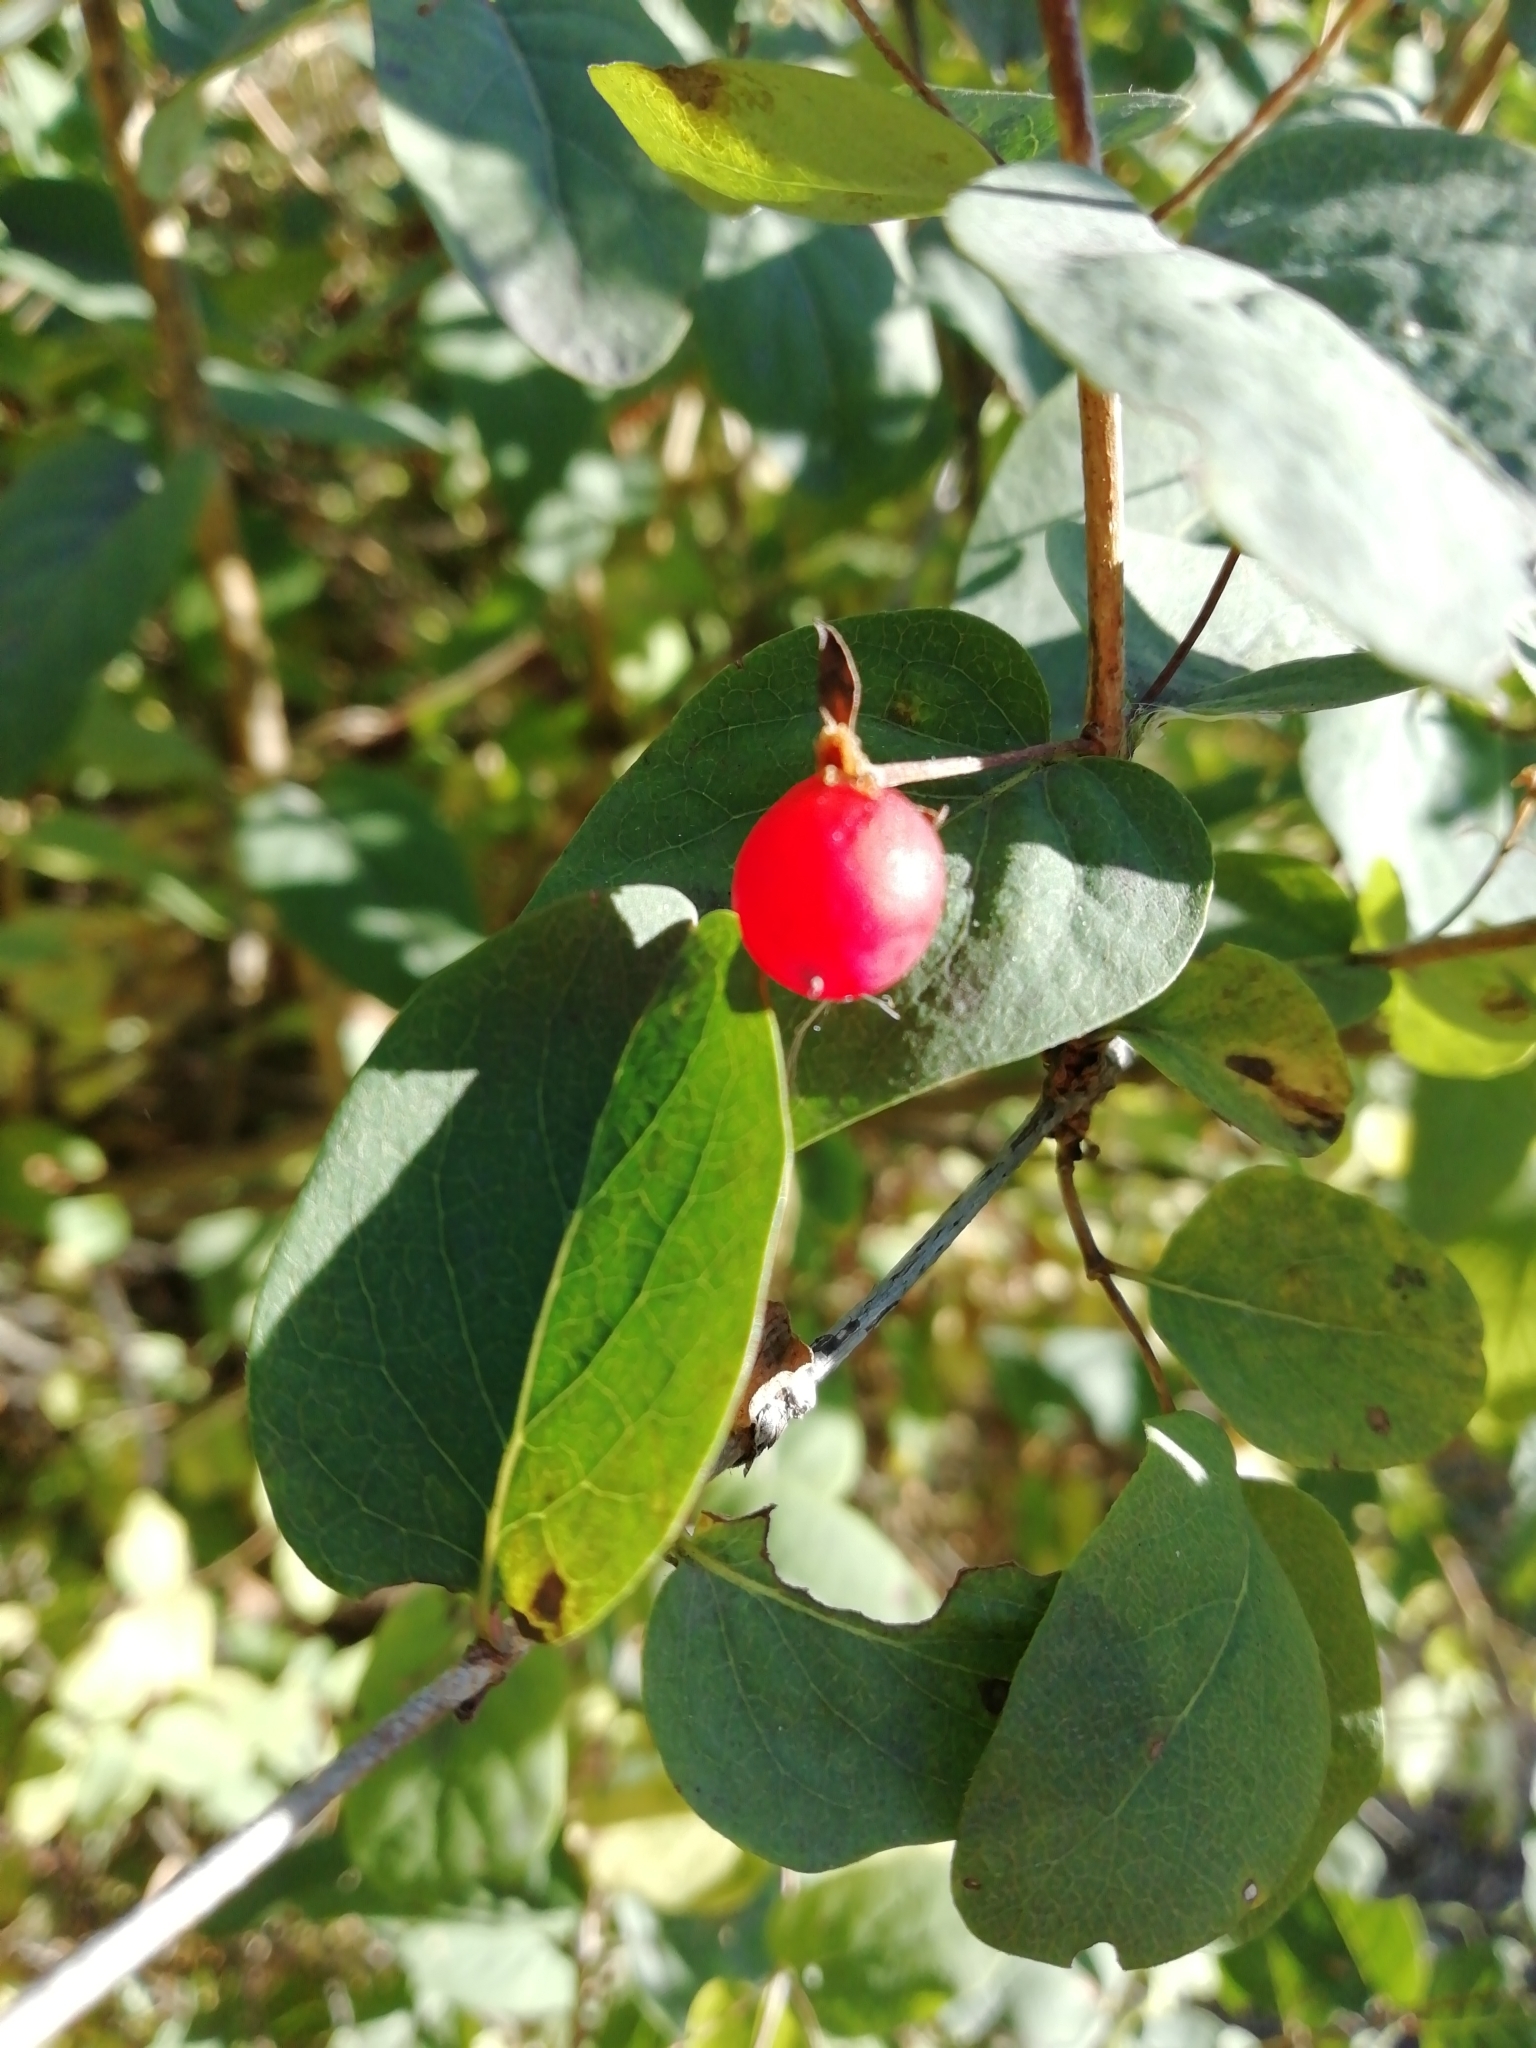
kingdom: Plantae
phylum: Tracheophyta
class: Magnoliopsida
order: Dipsacales
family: Caprifoliaceae
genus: Lonicera
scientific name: Lonicera tatarica
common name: Tatarian honeysuckle
